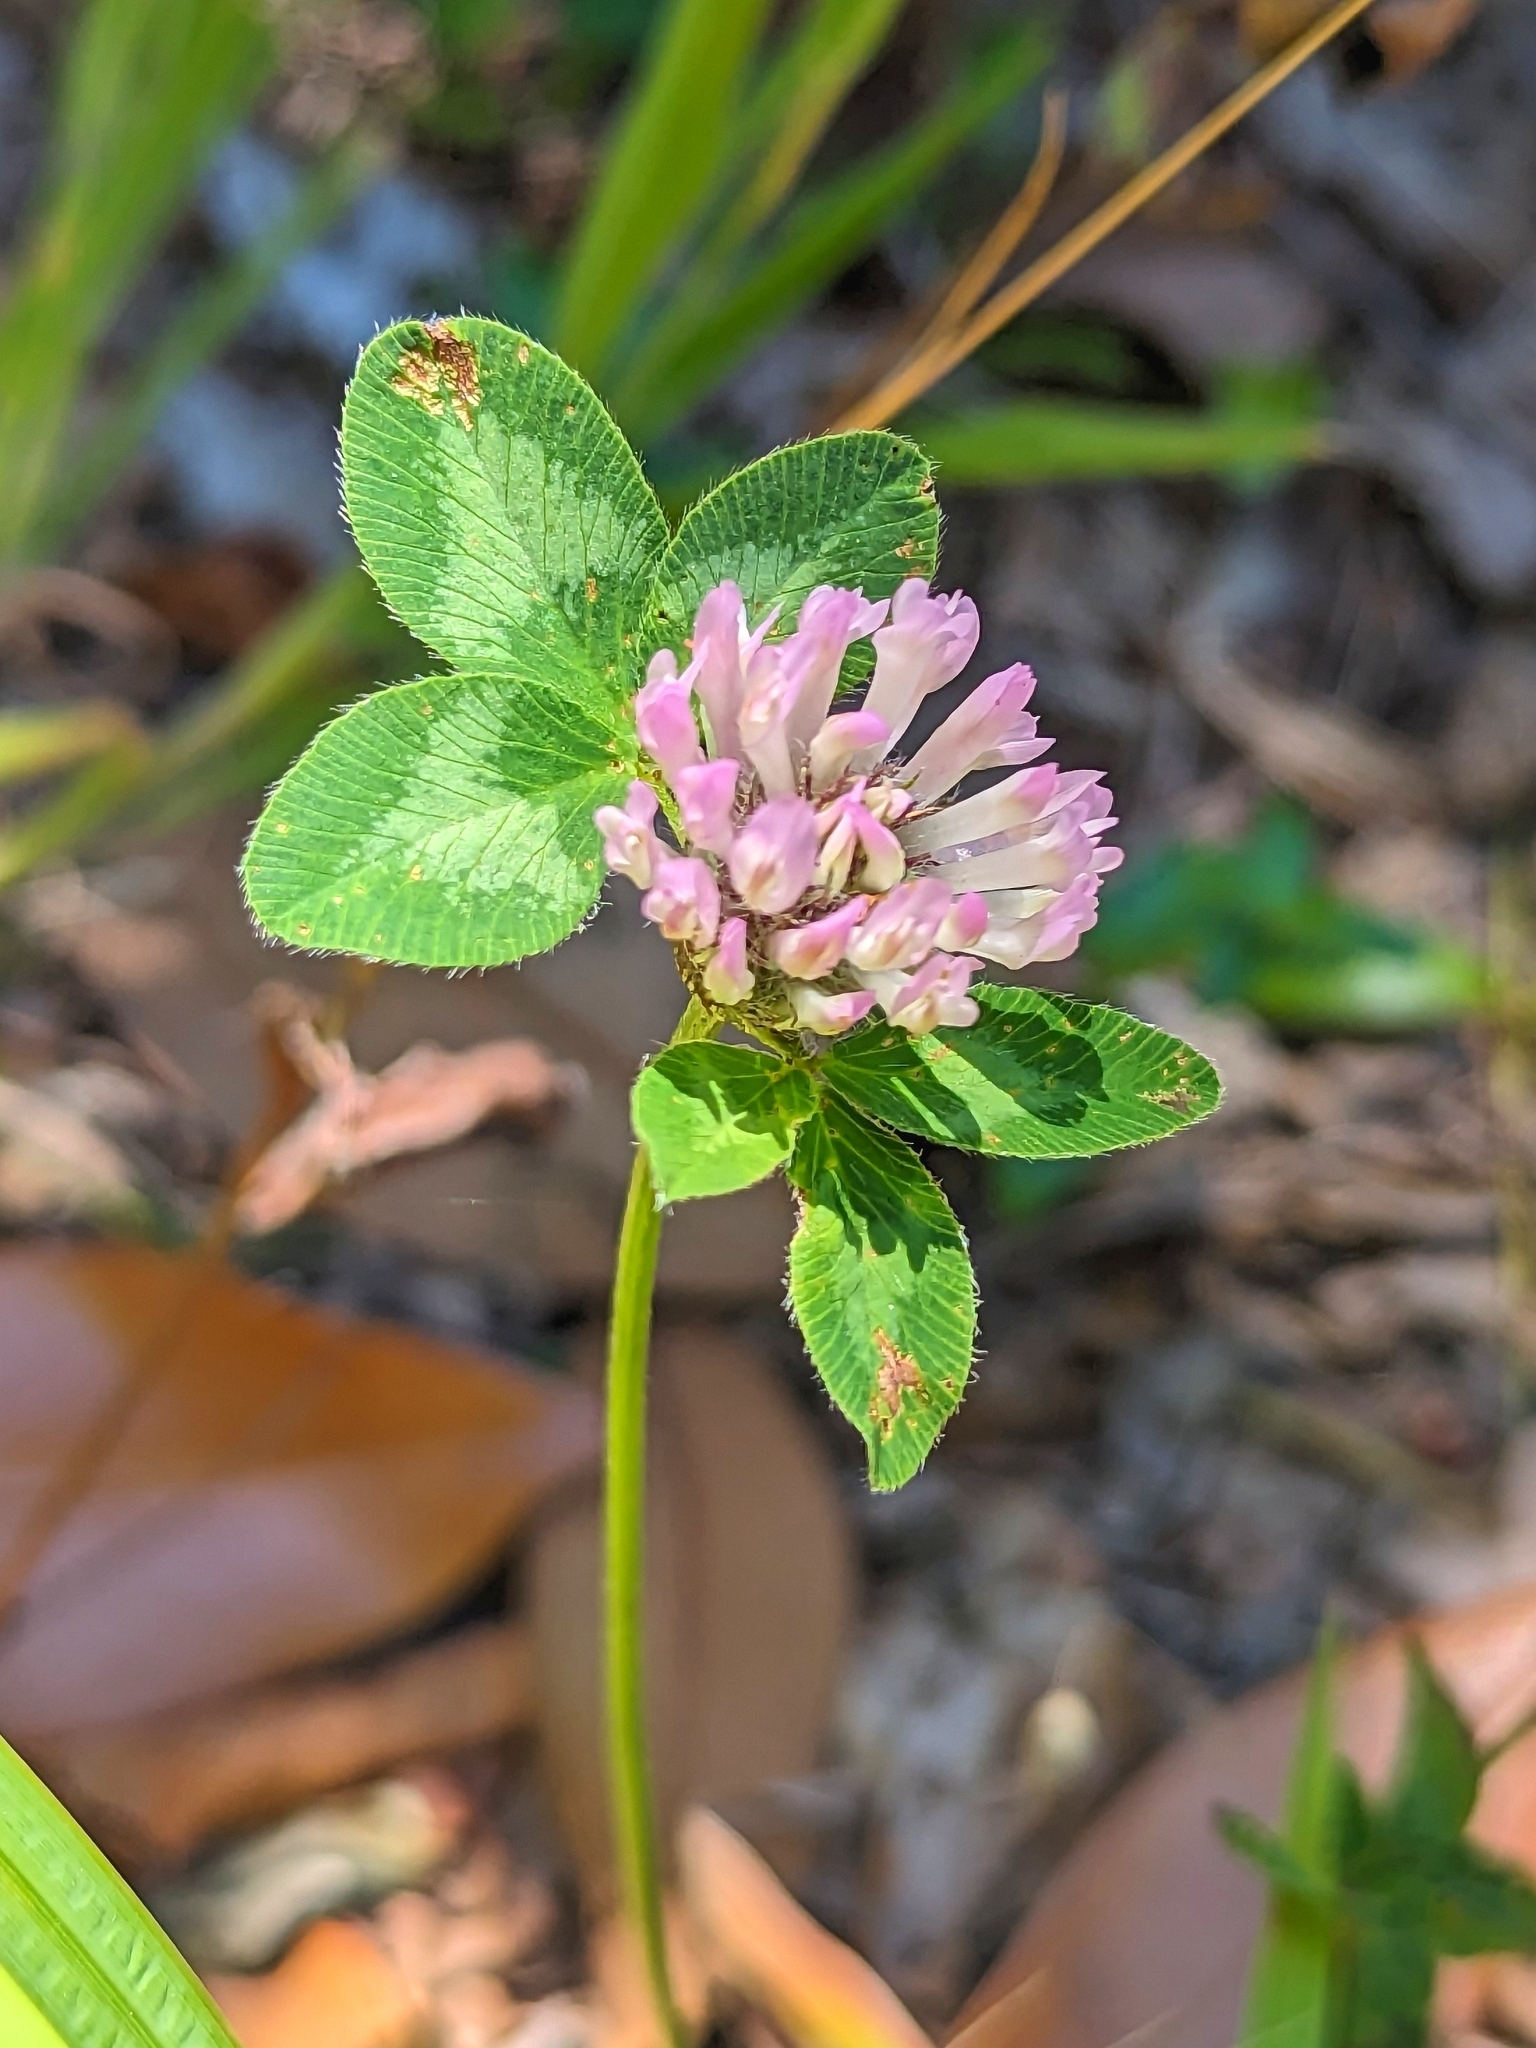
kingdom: Plantae
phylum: Tracheophyta
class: Magnoliopsida
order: Fabales
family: Fabaceae
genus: Trifolium
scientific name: Trifolium pratense
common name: Red clover
